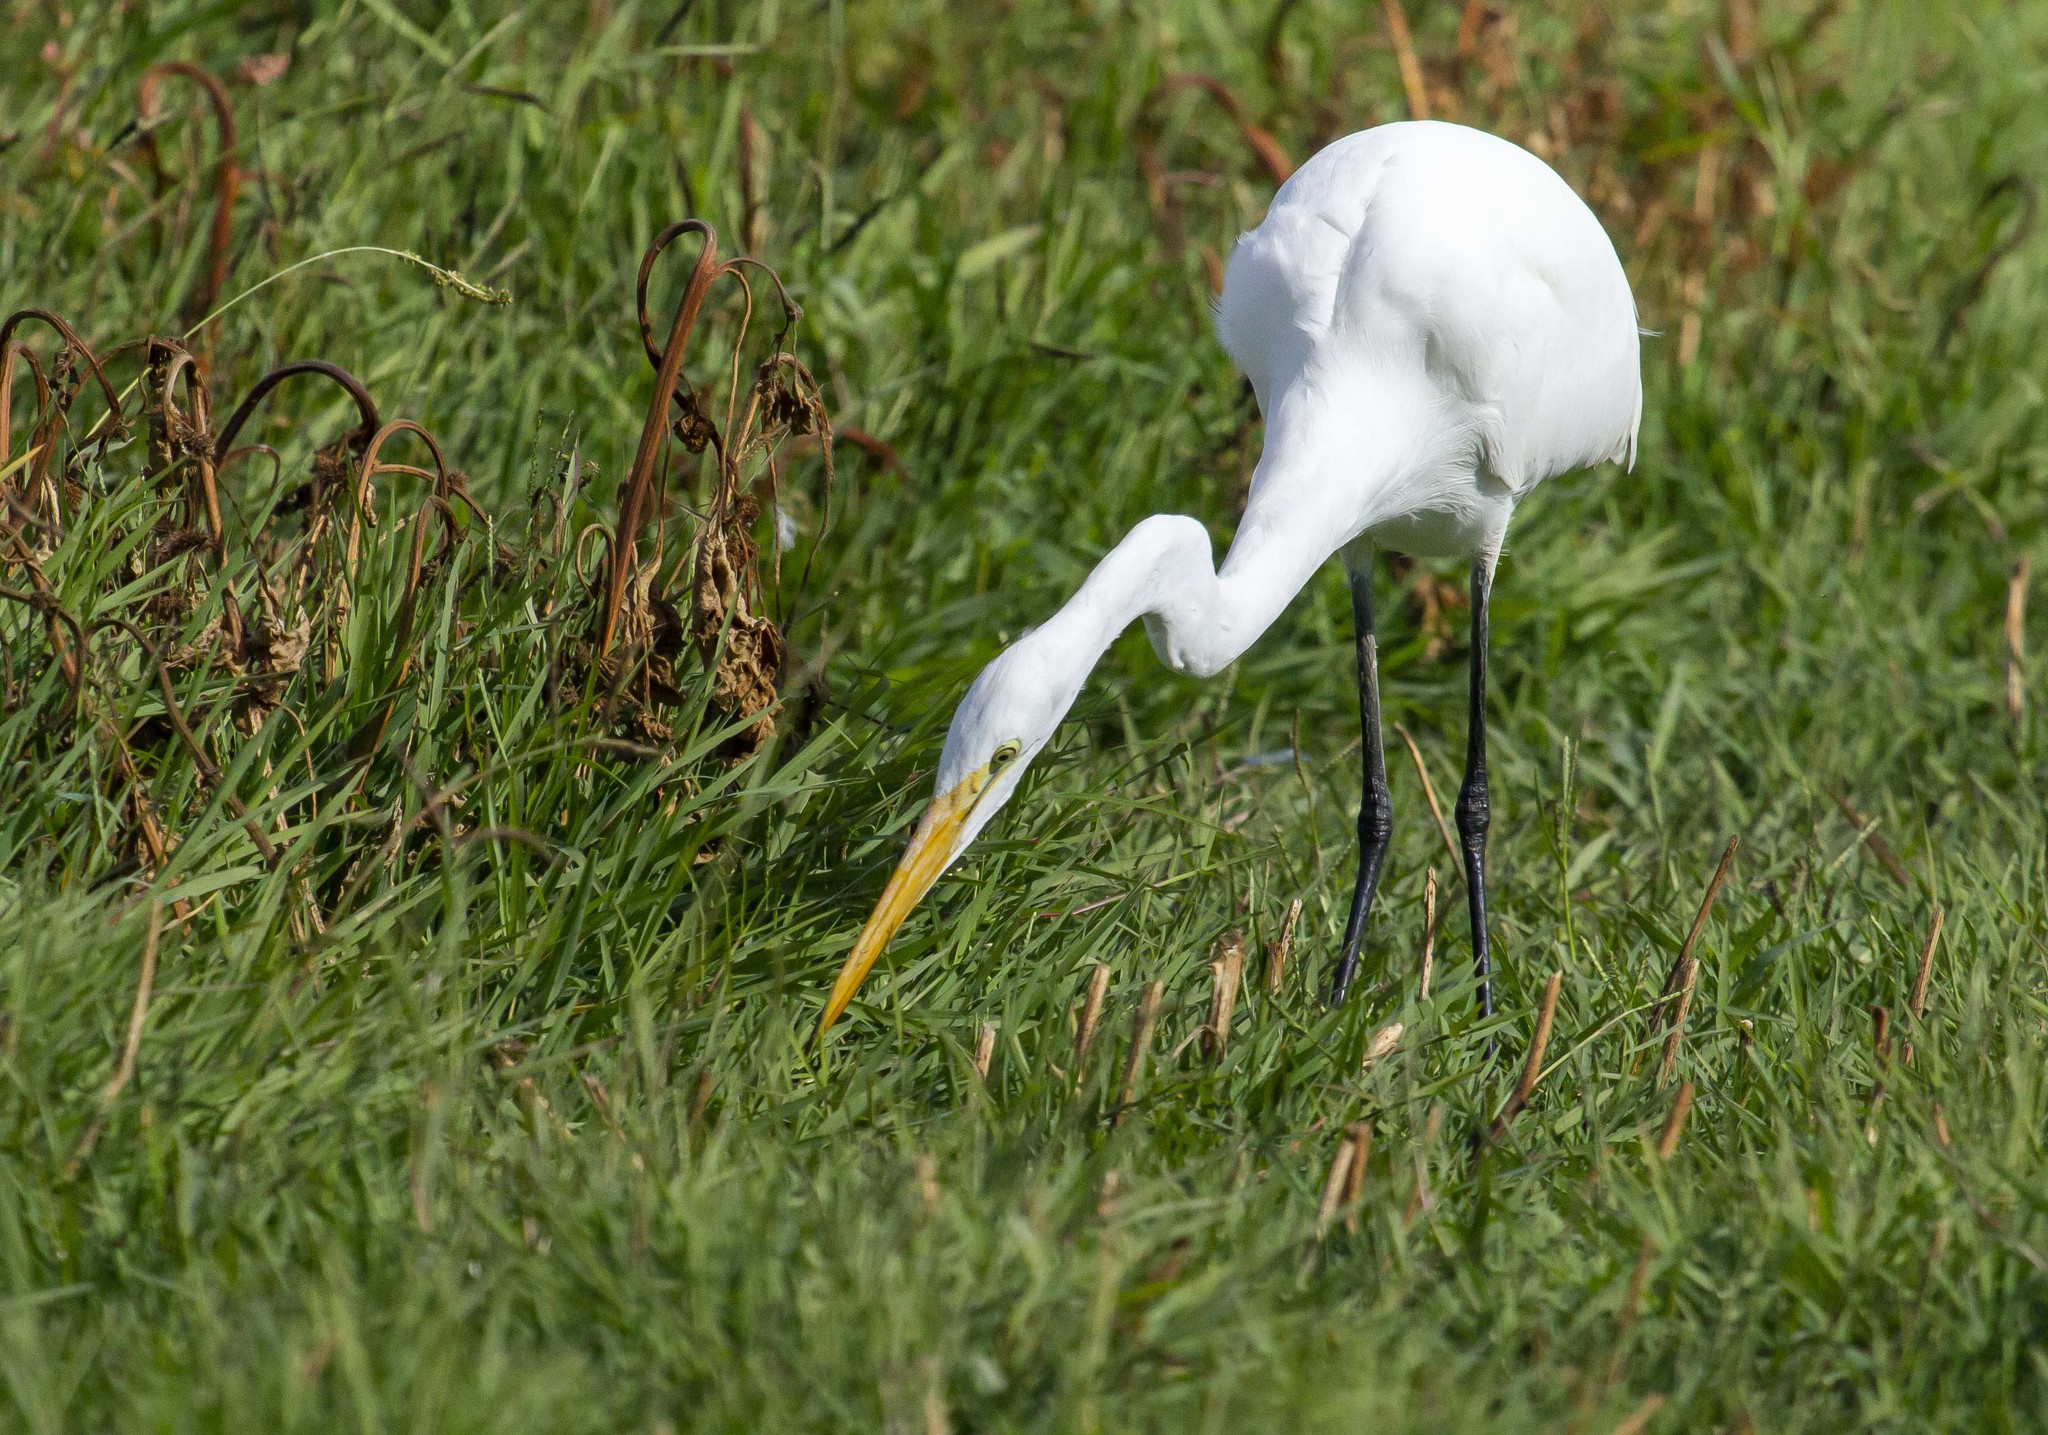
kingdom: Animalia
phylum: Chordata
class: Aves
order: Pelecaniformes
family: Ardeidae
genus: Ardea
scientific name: Ardea alba
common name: Great egret
